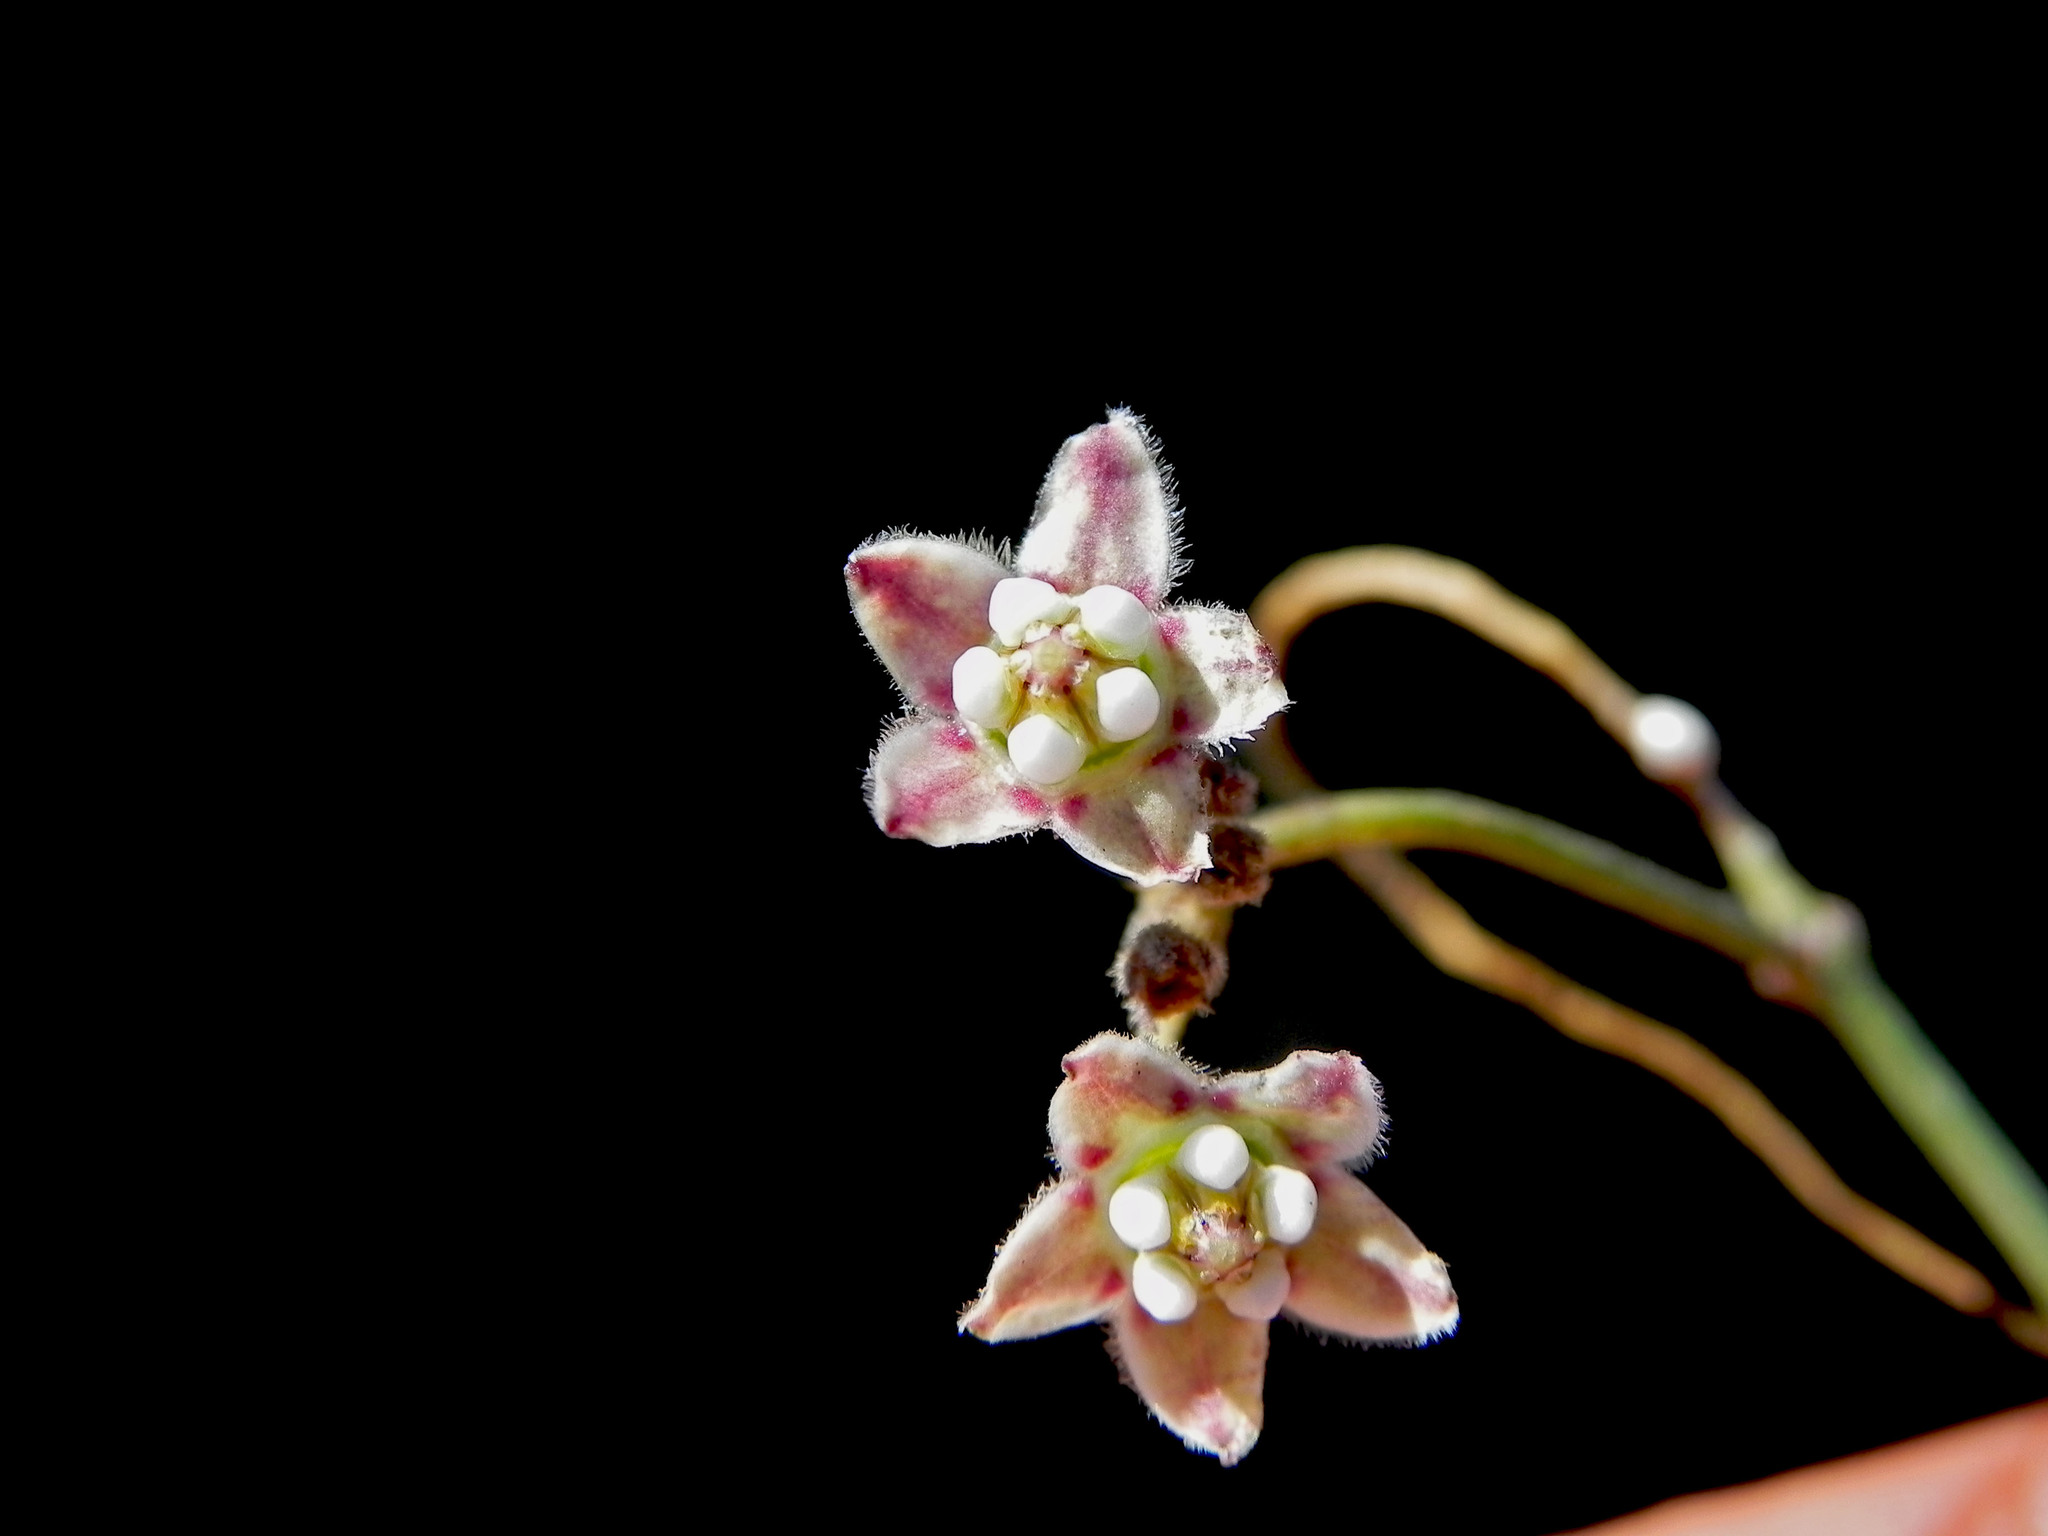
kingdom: Plantae
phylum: Tracheophyta
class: Magnoliopsida
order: Gentianales
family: Apocynaceae
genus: Funastrum
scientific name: Funastrum heterophyllum
